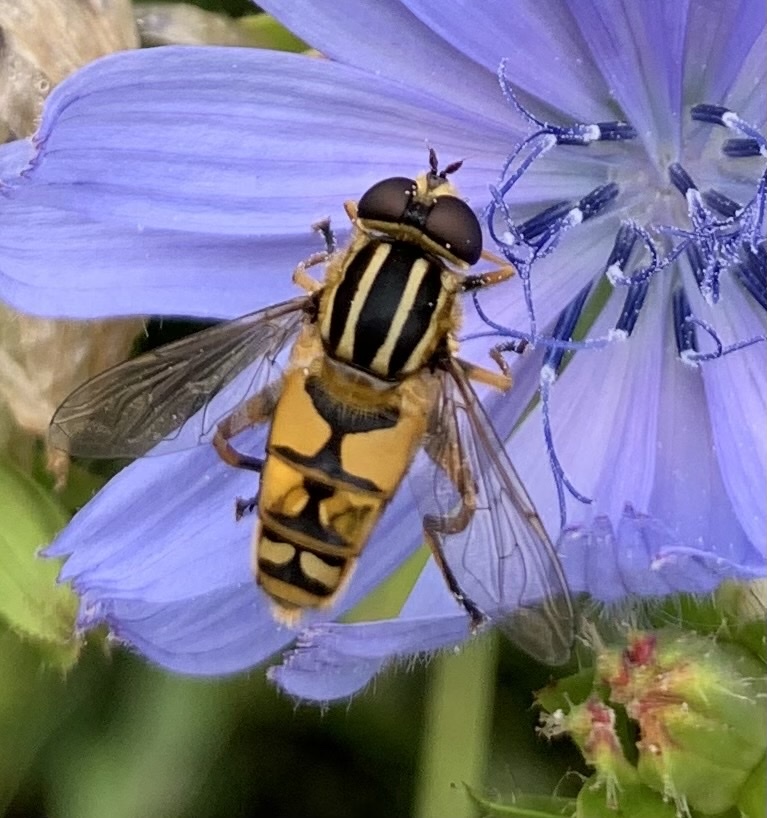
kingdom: Animalia
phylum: Arthropoda
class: Insecta
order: Diptera
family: Syrphidae
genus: Helophilus
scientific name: Helophilus pendulus
